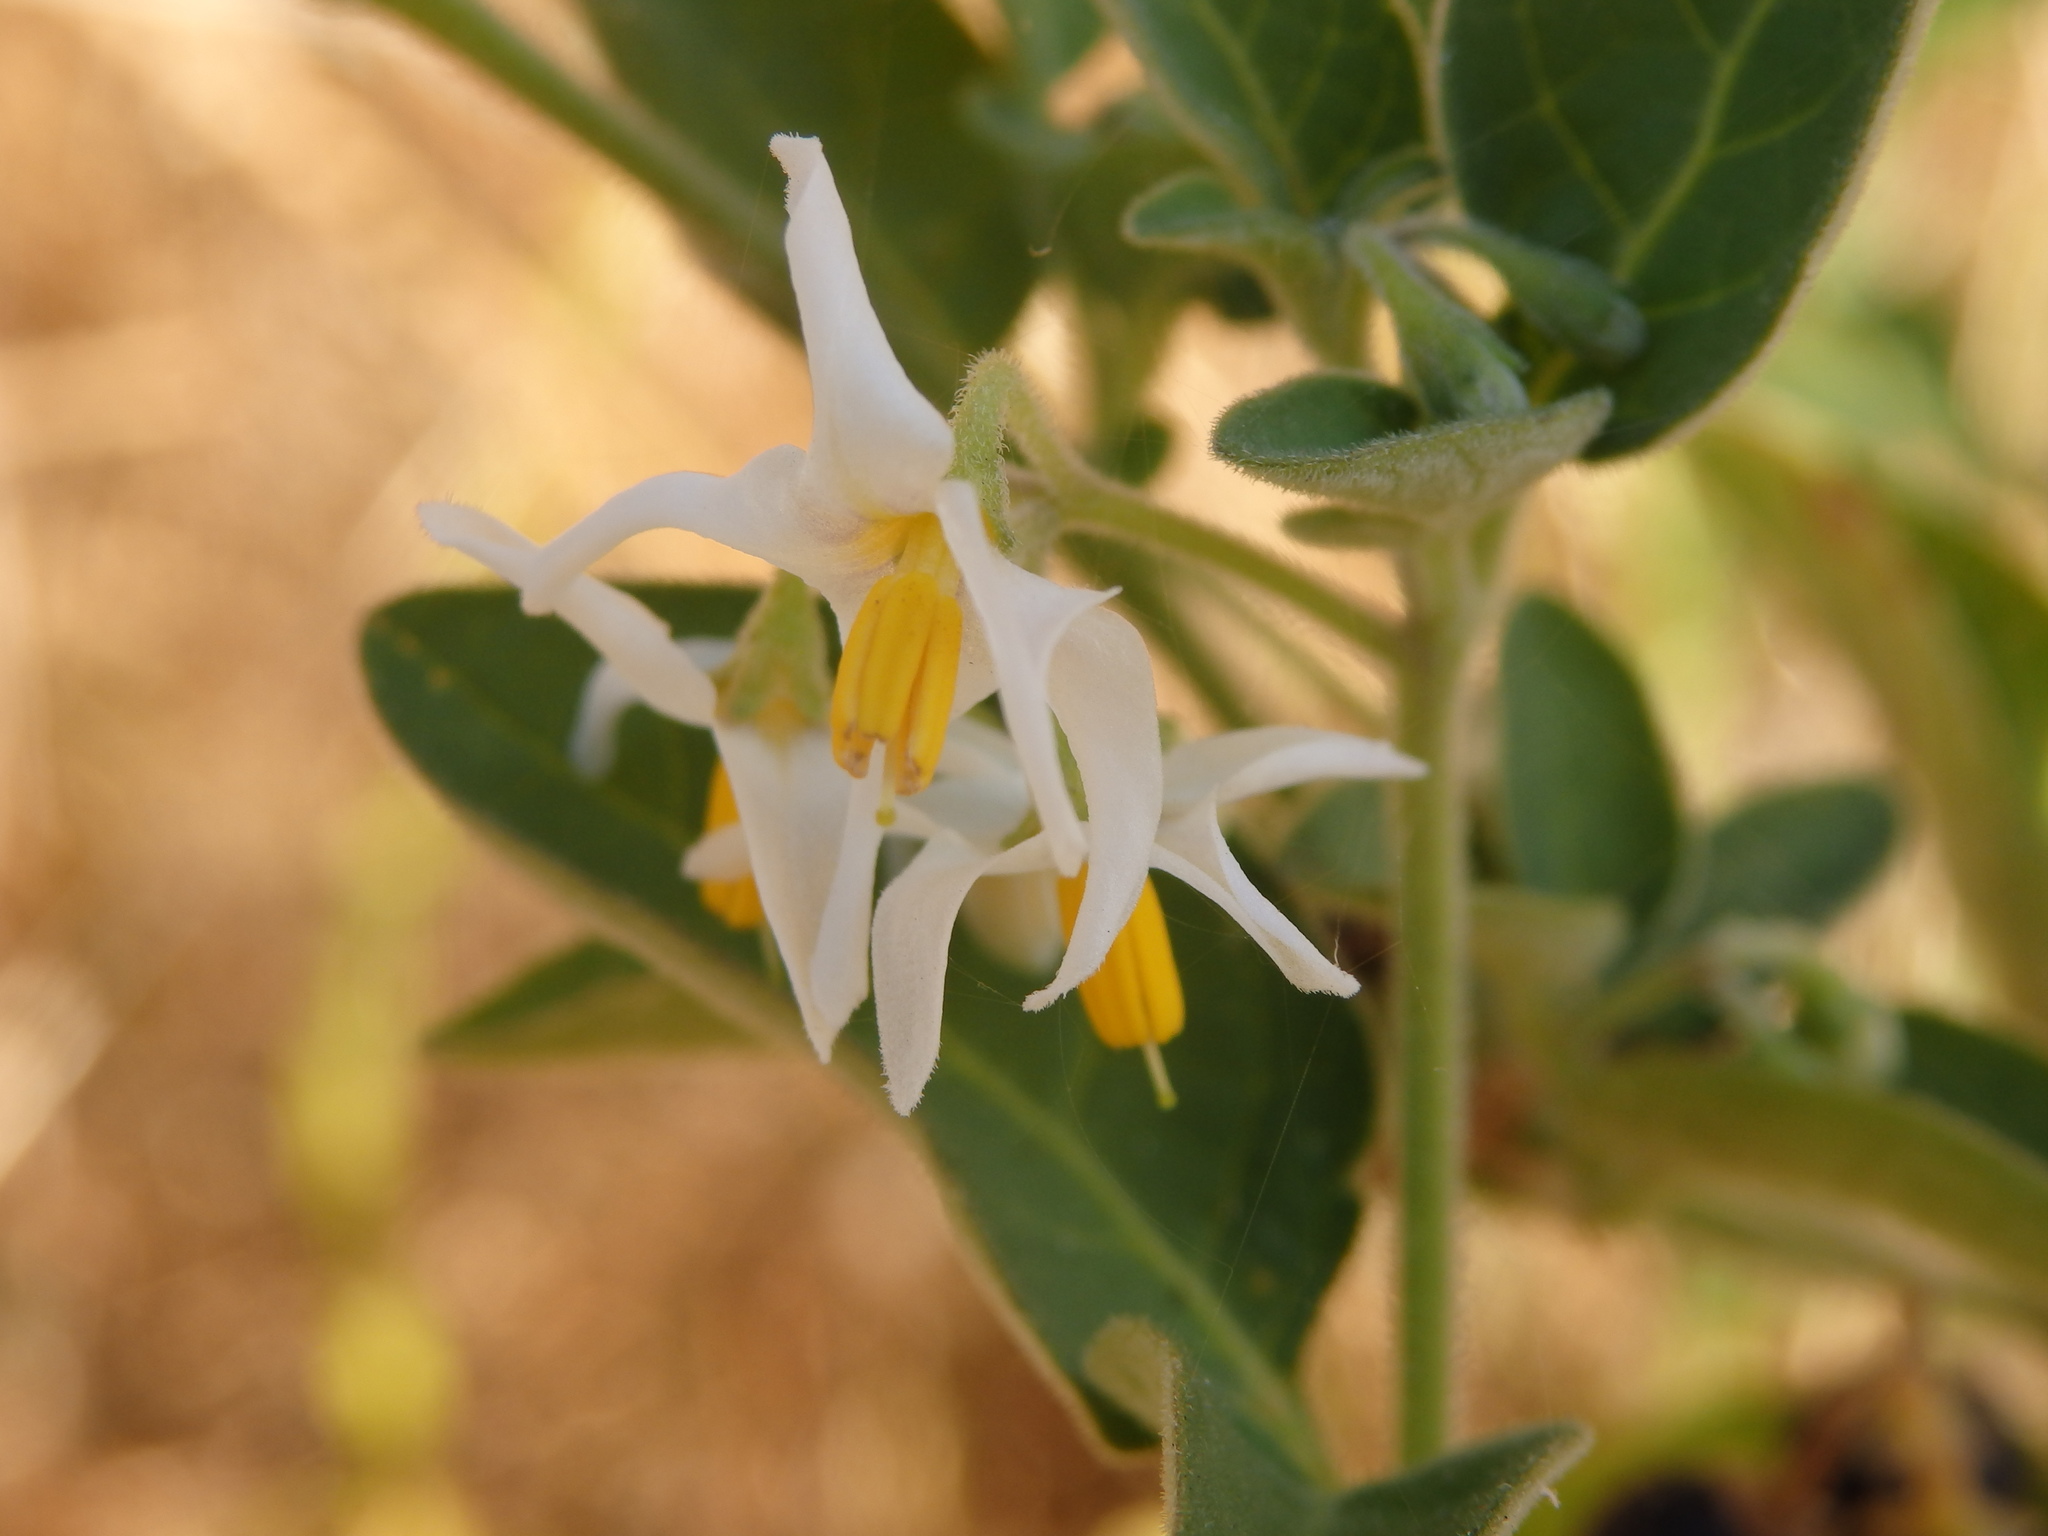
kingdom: Plantae
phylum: Tracheophyta
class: Magnoliopsida
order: Solanales
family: Solanaceae
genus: Solanum
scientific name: Solanum chenopodioides
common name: Tall nightshade
